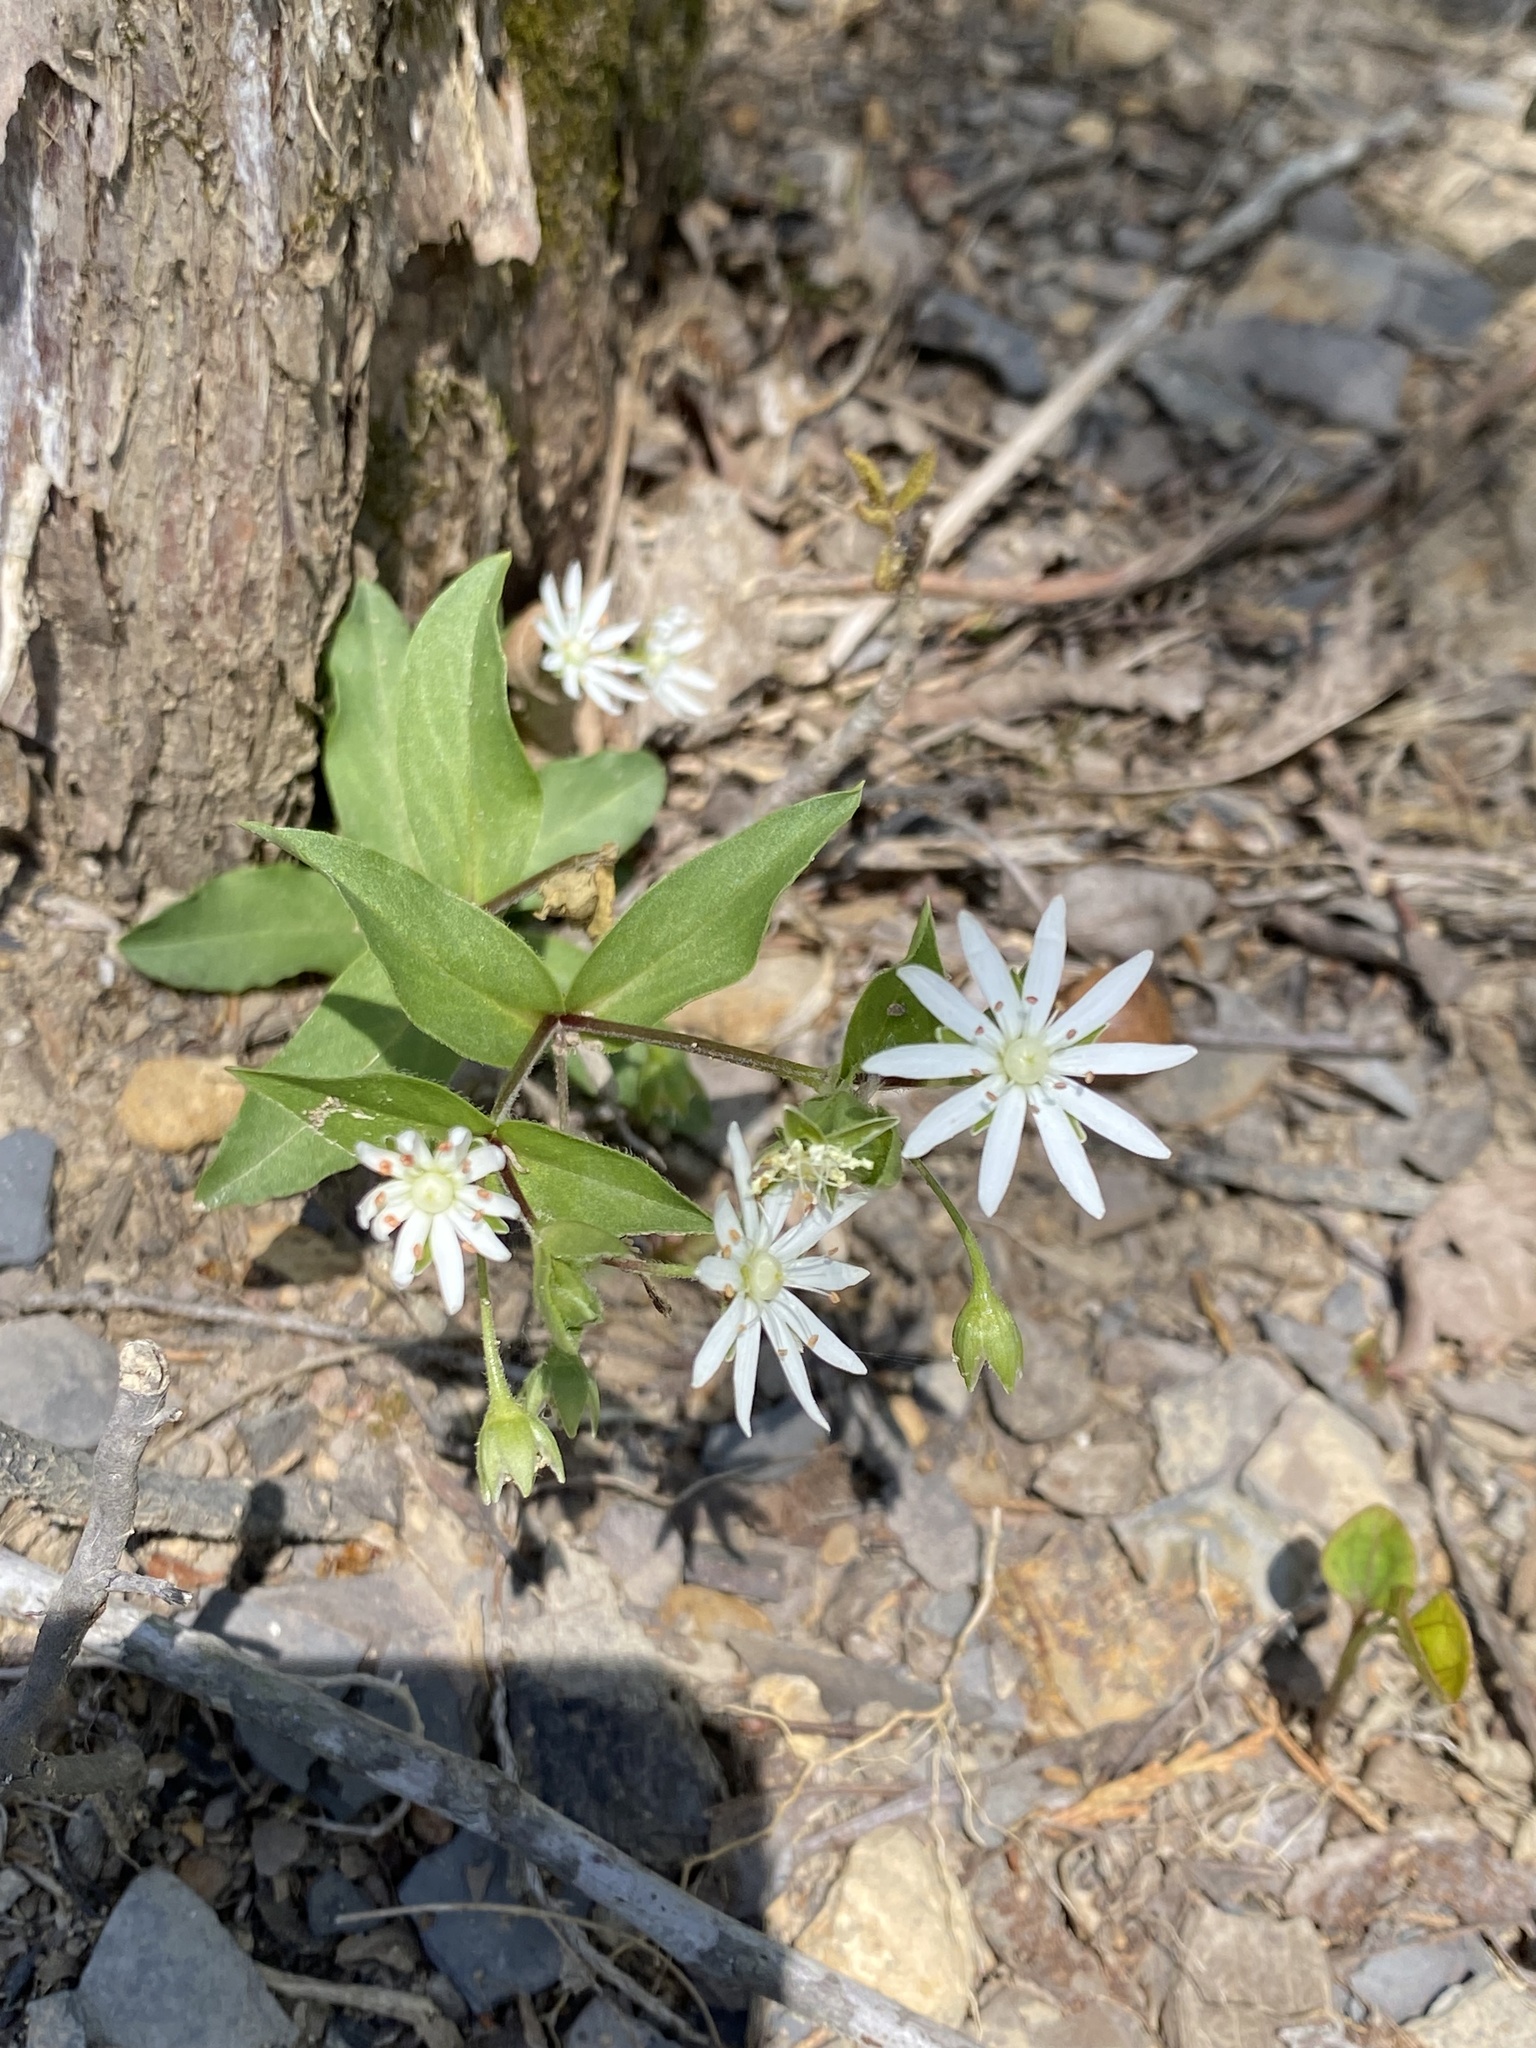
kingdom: Plantae
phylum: Tracheophyta
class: Magnoliopsida
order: Caryophyllales
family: Caryophyllaceae
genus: Stellaria
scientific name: Stellaria pubera
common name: Star chickweed
